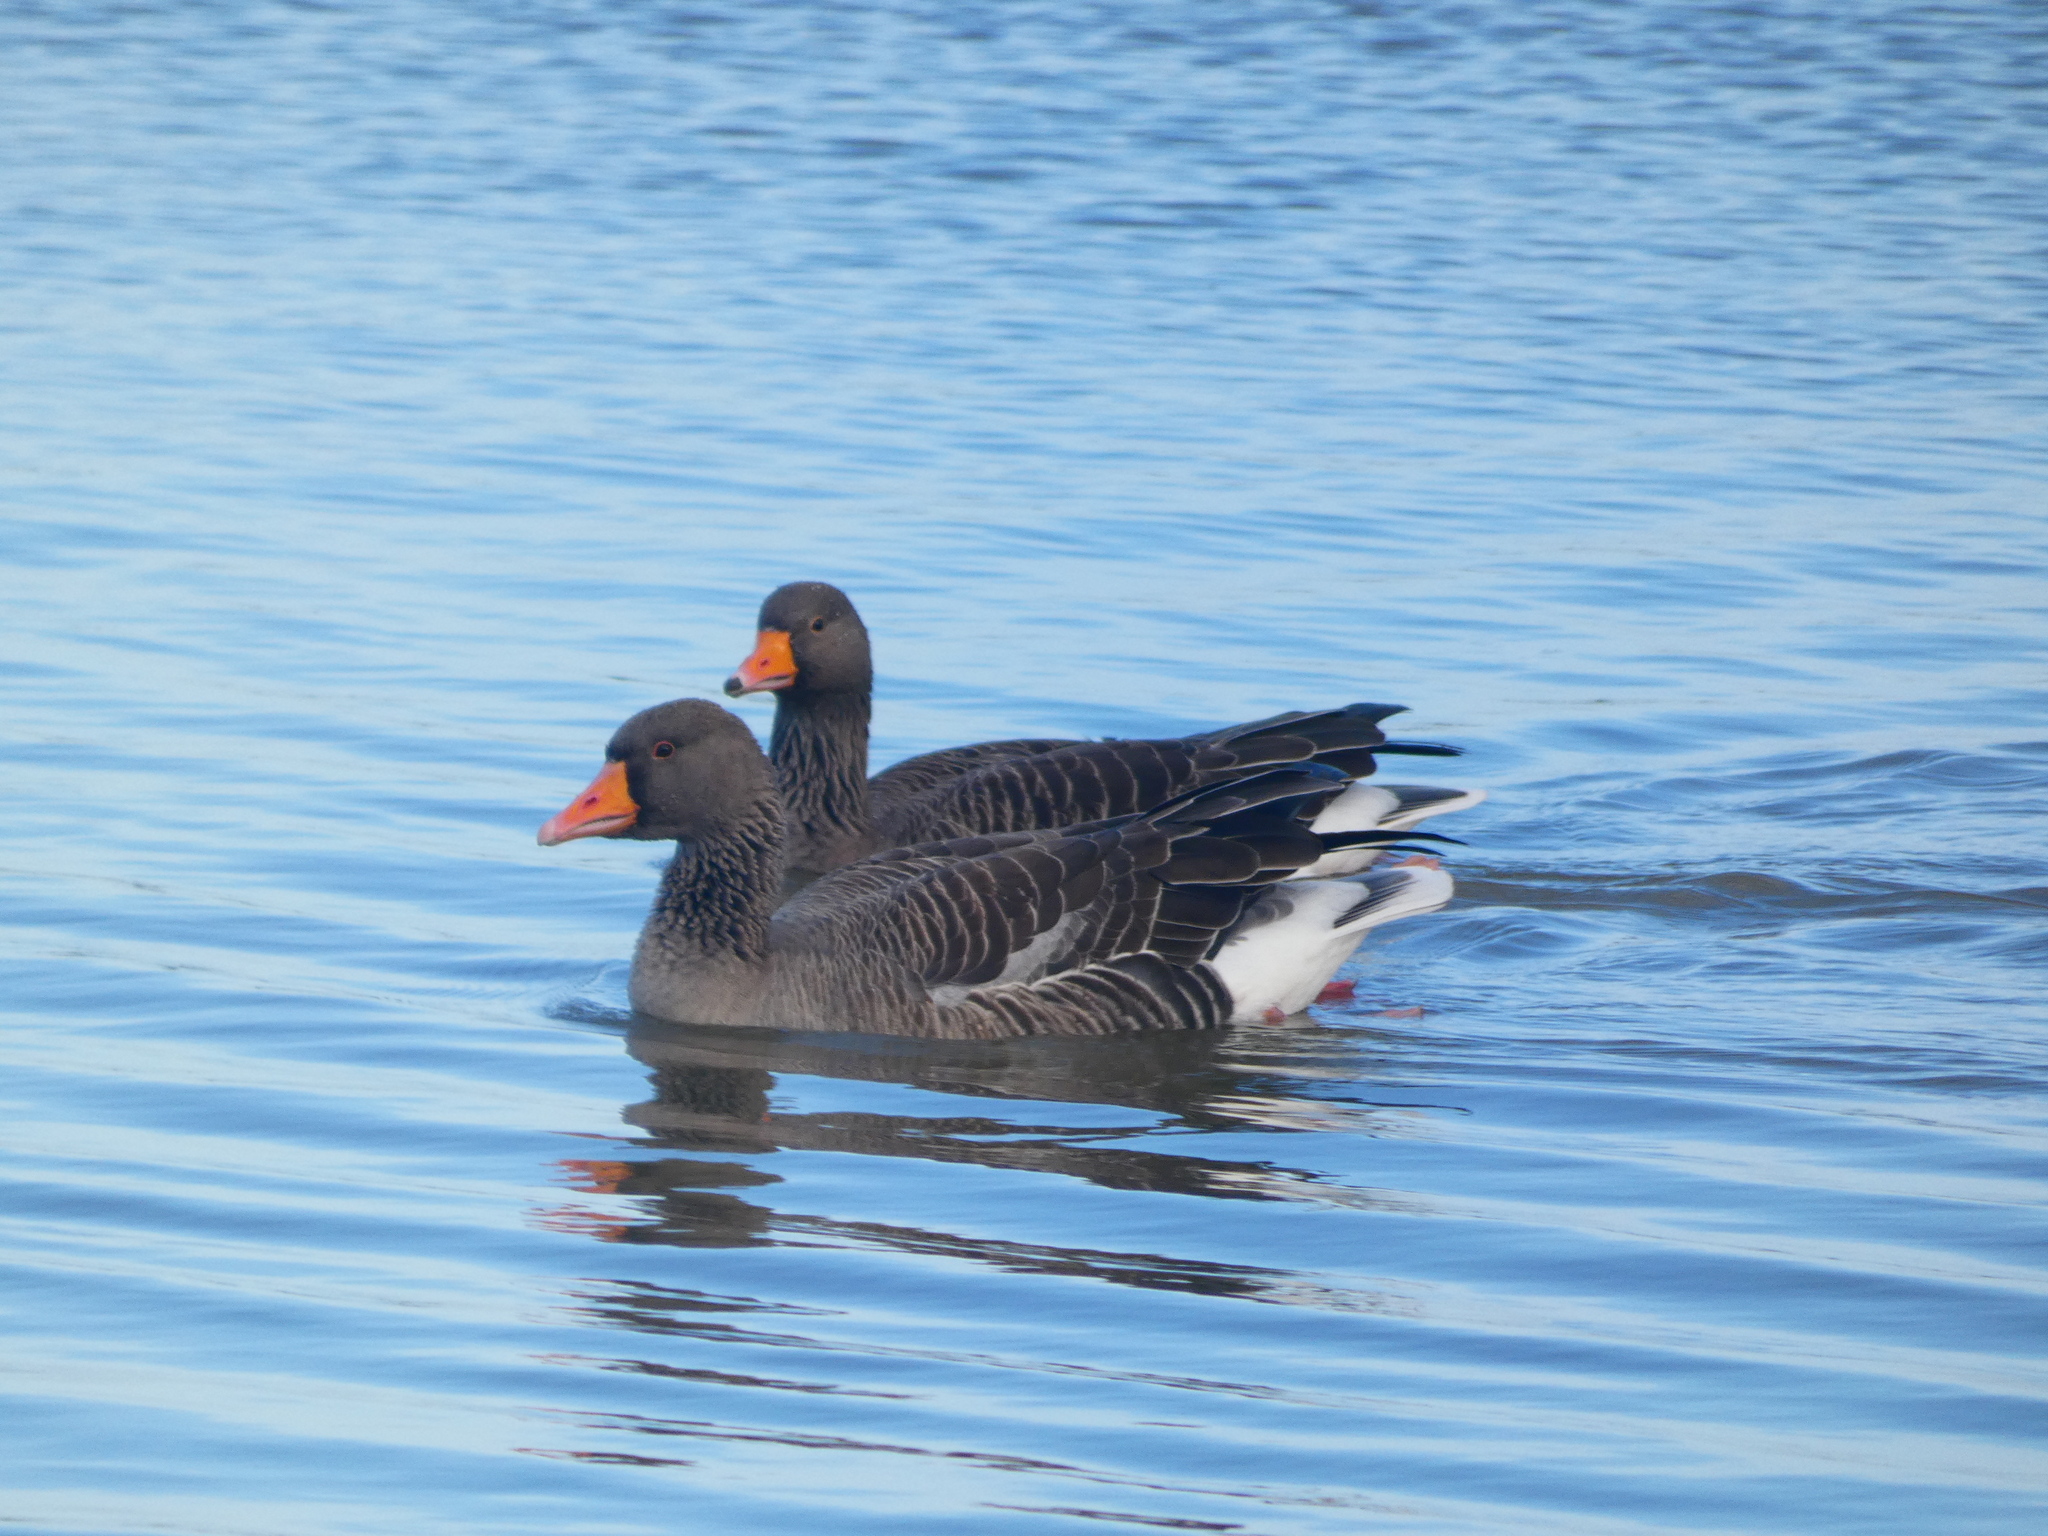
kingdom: Animalia
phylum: Chordata
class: Aves
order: Anseriformes
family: Anatidae
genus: Anser
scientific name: Anser serrirostris
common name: Tundra bean goose
